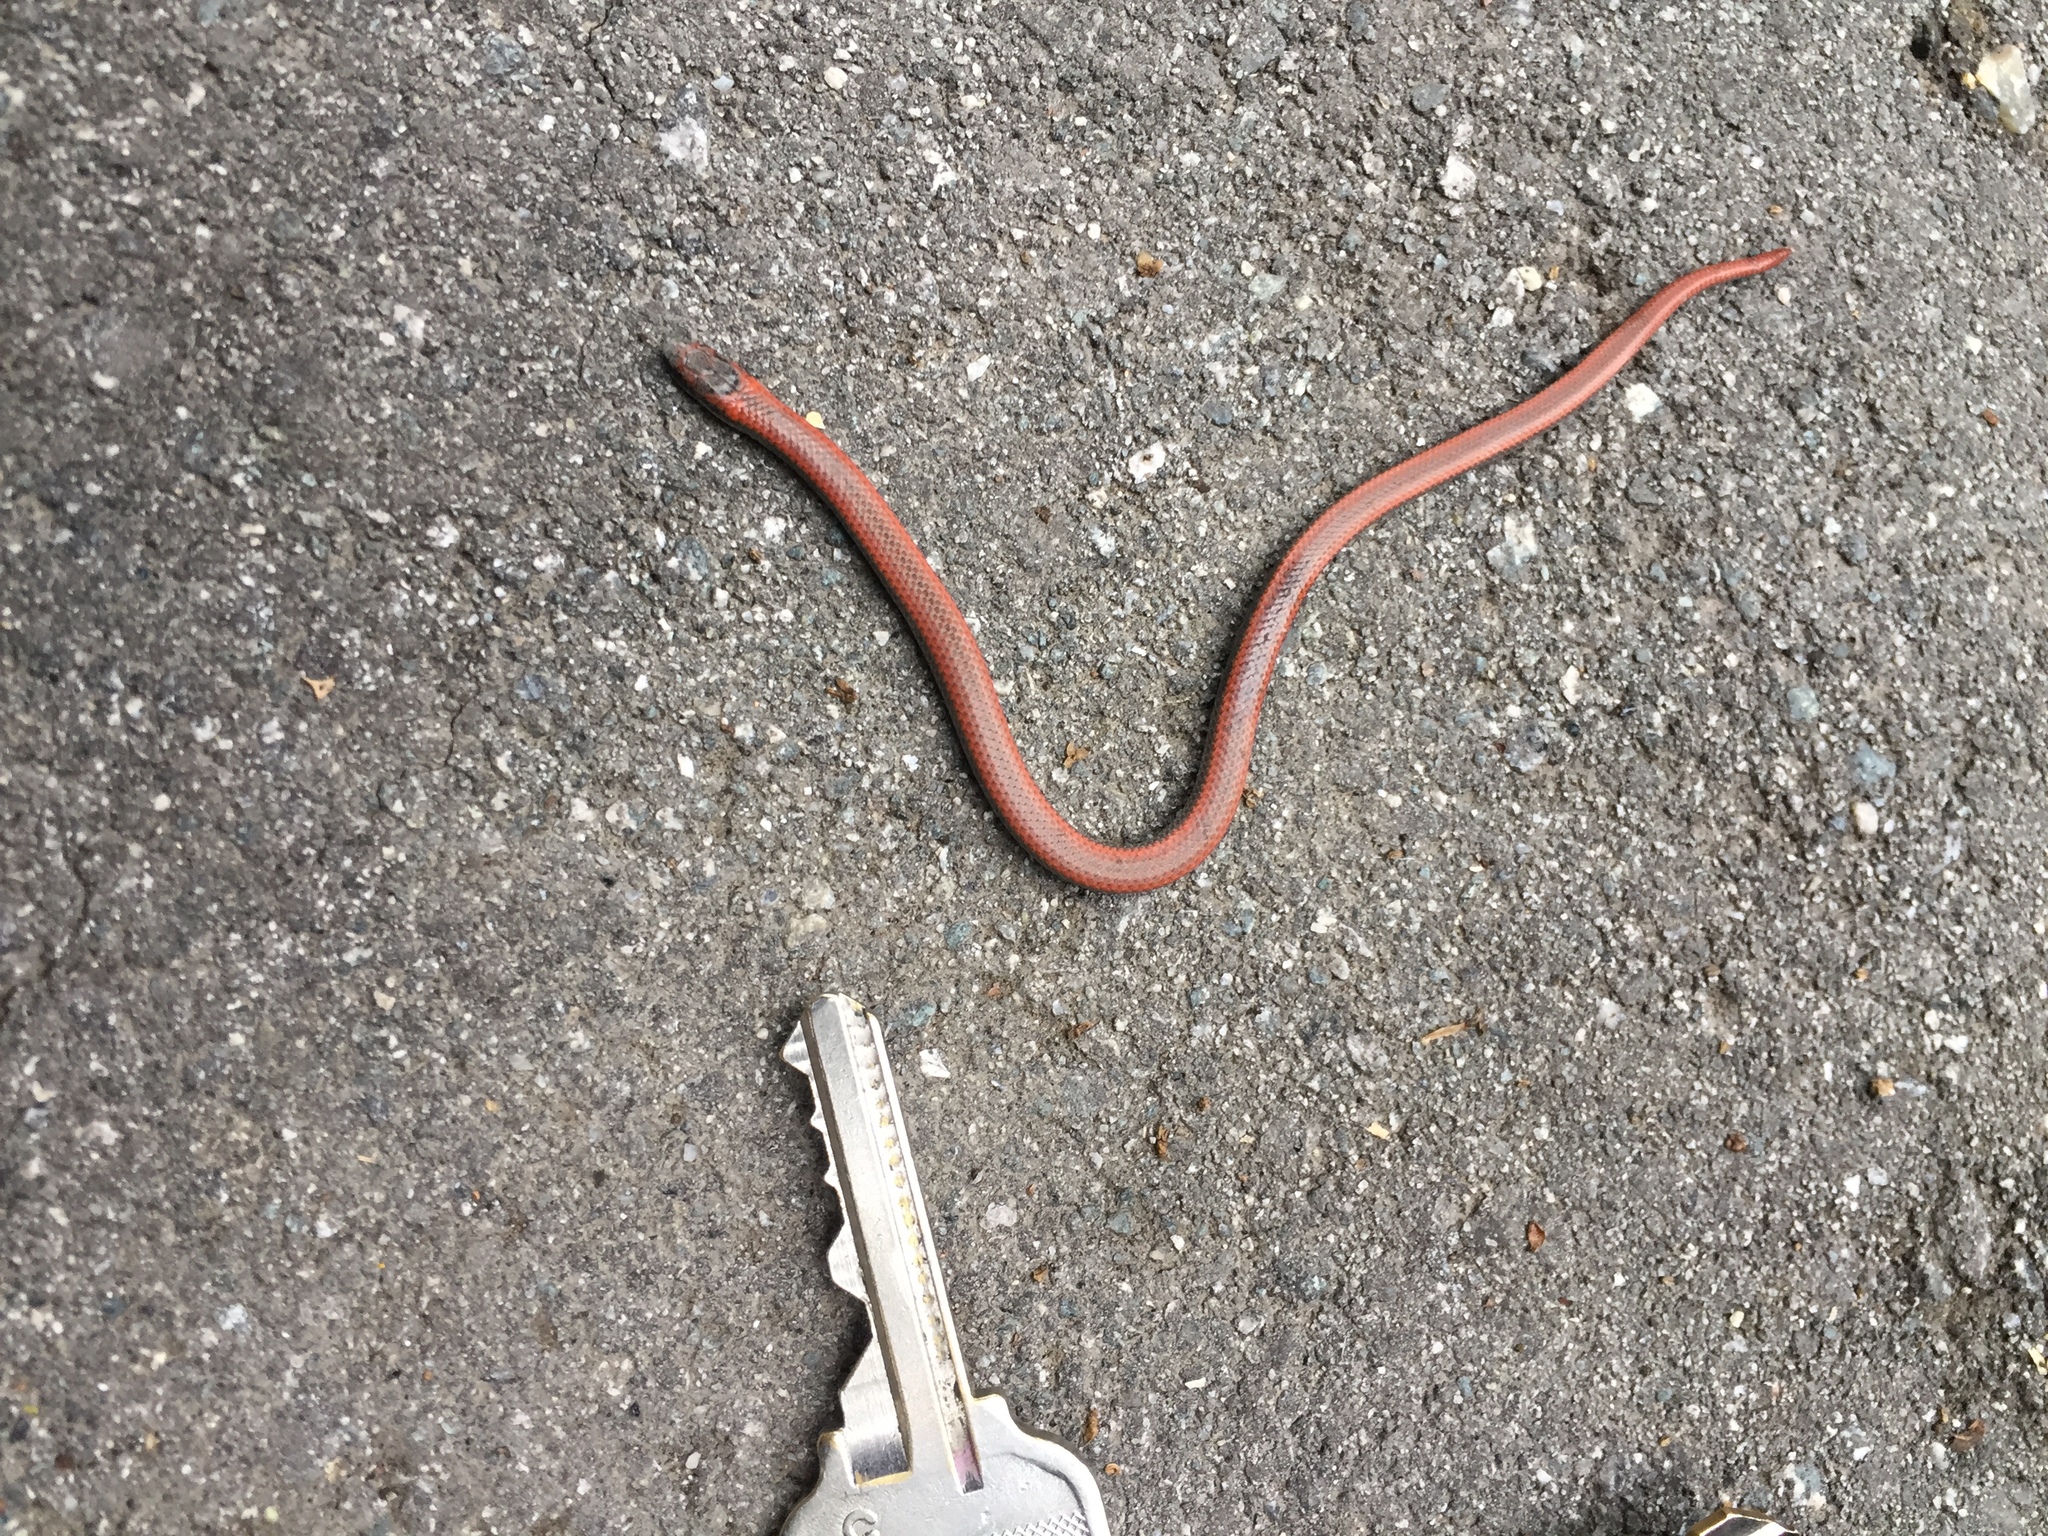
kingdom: Animalia
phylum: Chordata
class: Squamata
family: Colubridae
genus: Contia
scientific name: Contia tenuis
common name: Sharptail snake
